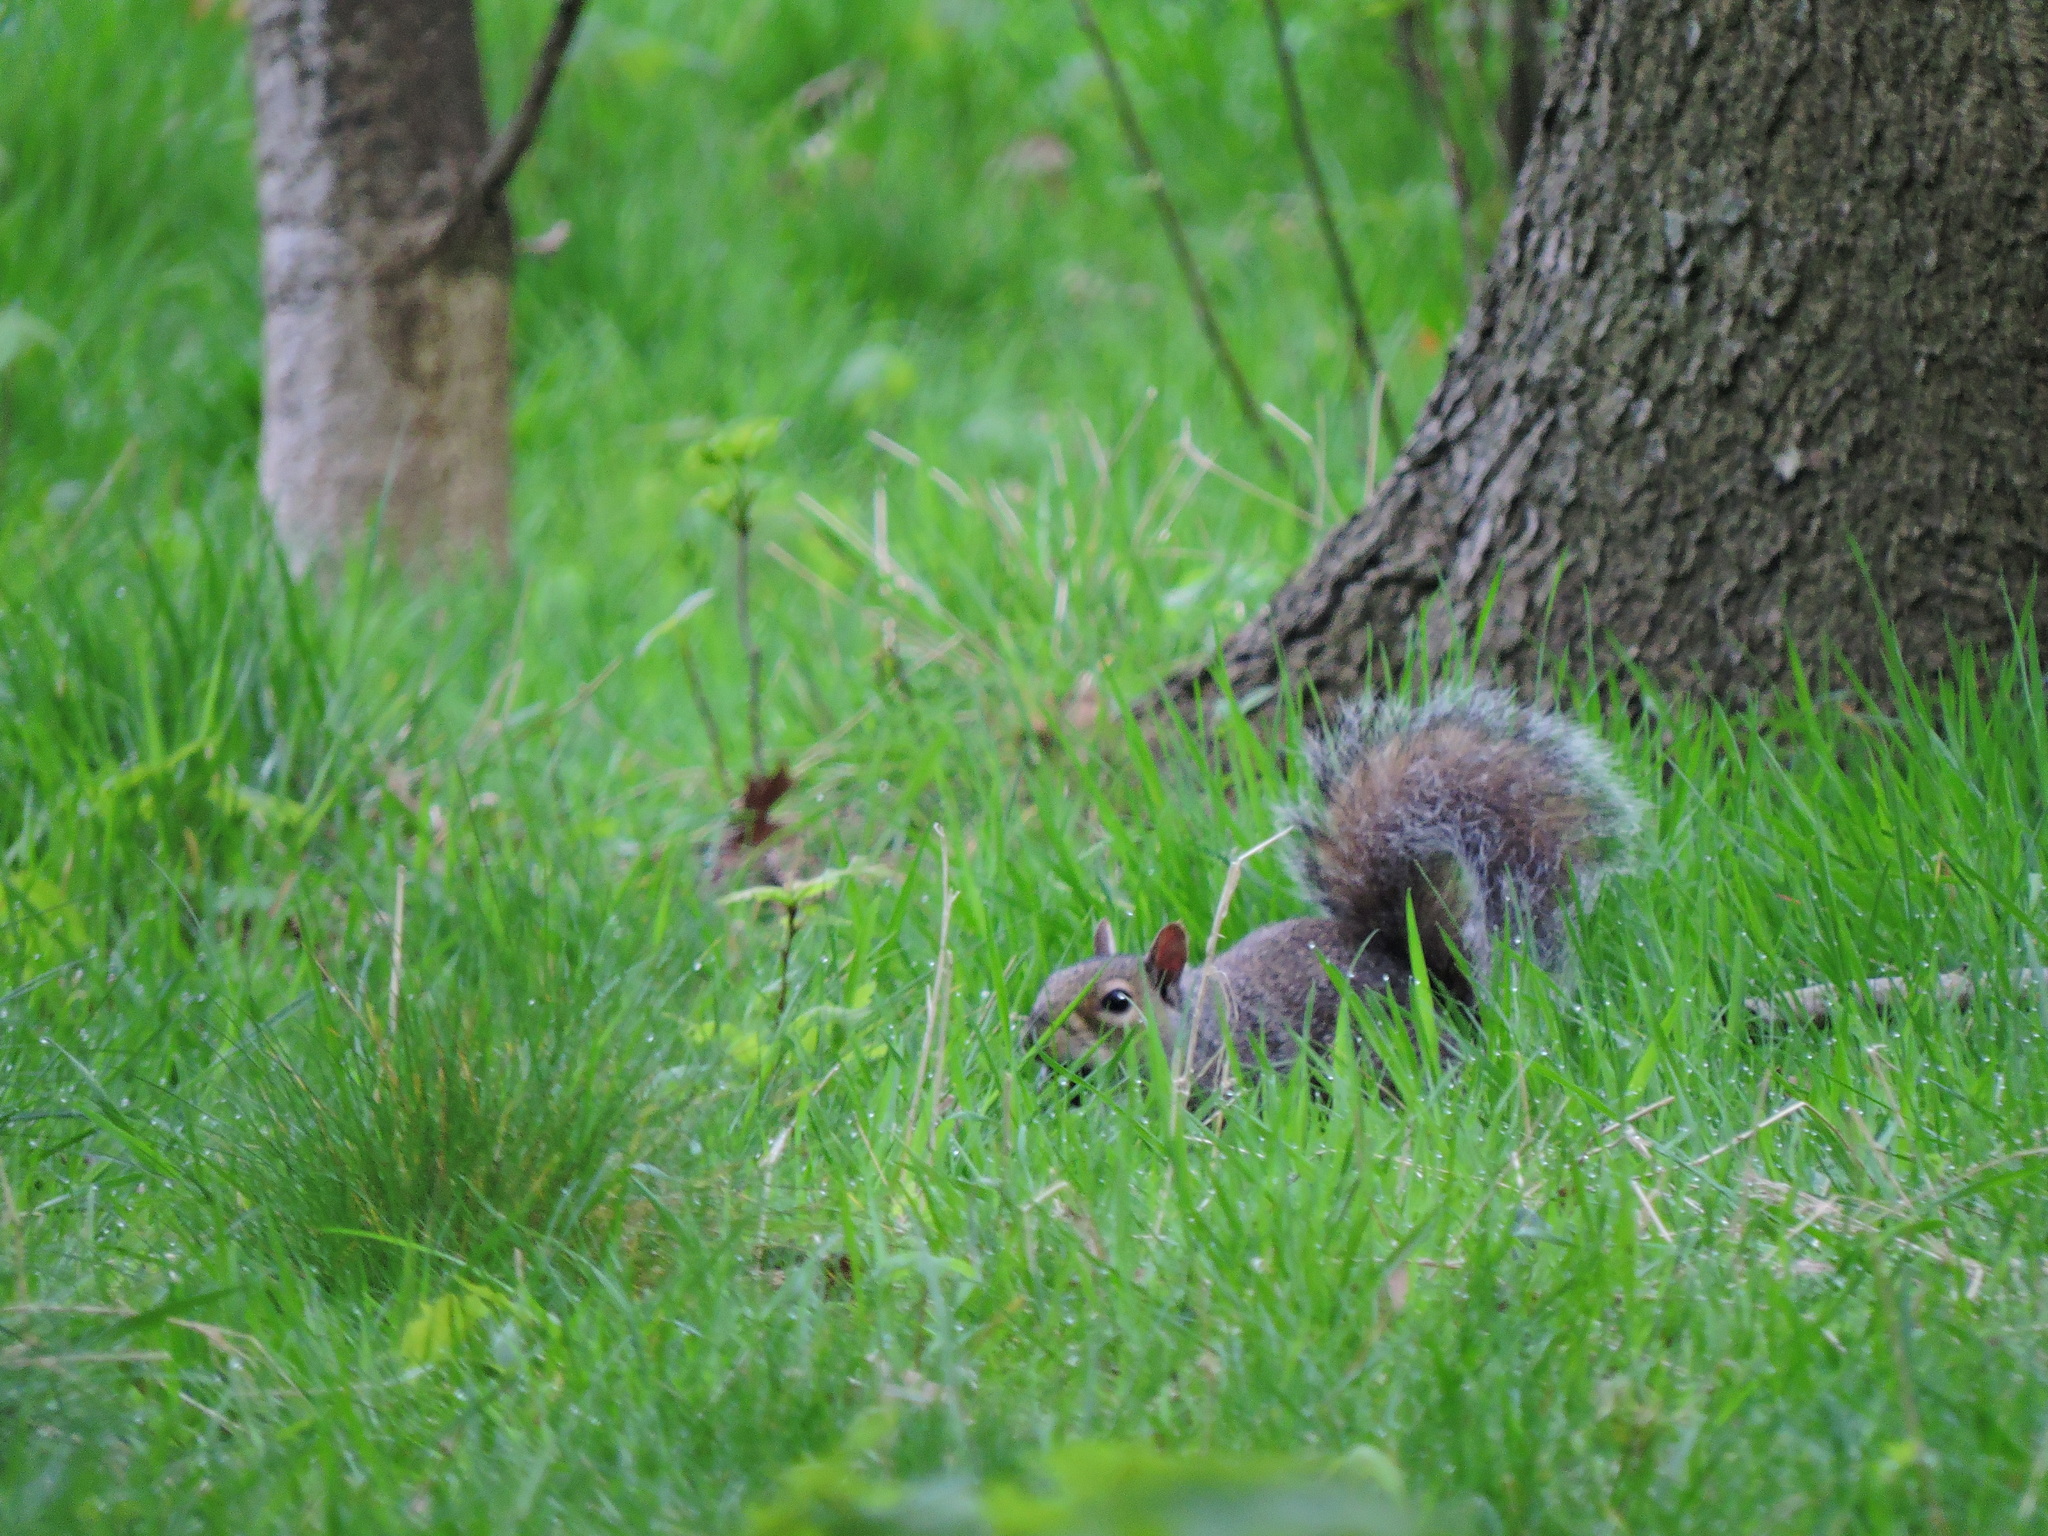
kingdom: Animalia
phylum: Chordata
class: Mammalia
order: Rodentia
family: Sciuridae
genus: Sciurus
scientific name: Sciurus carolinensis
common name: Eastern gray squirrel
